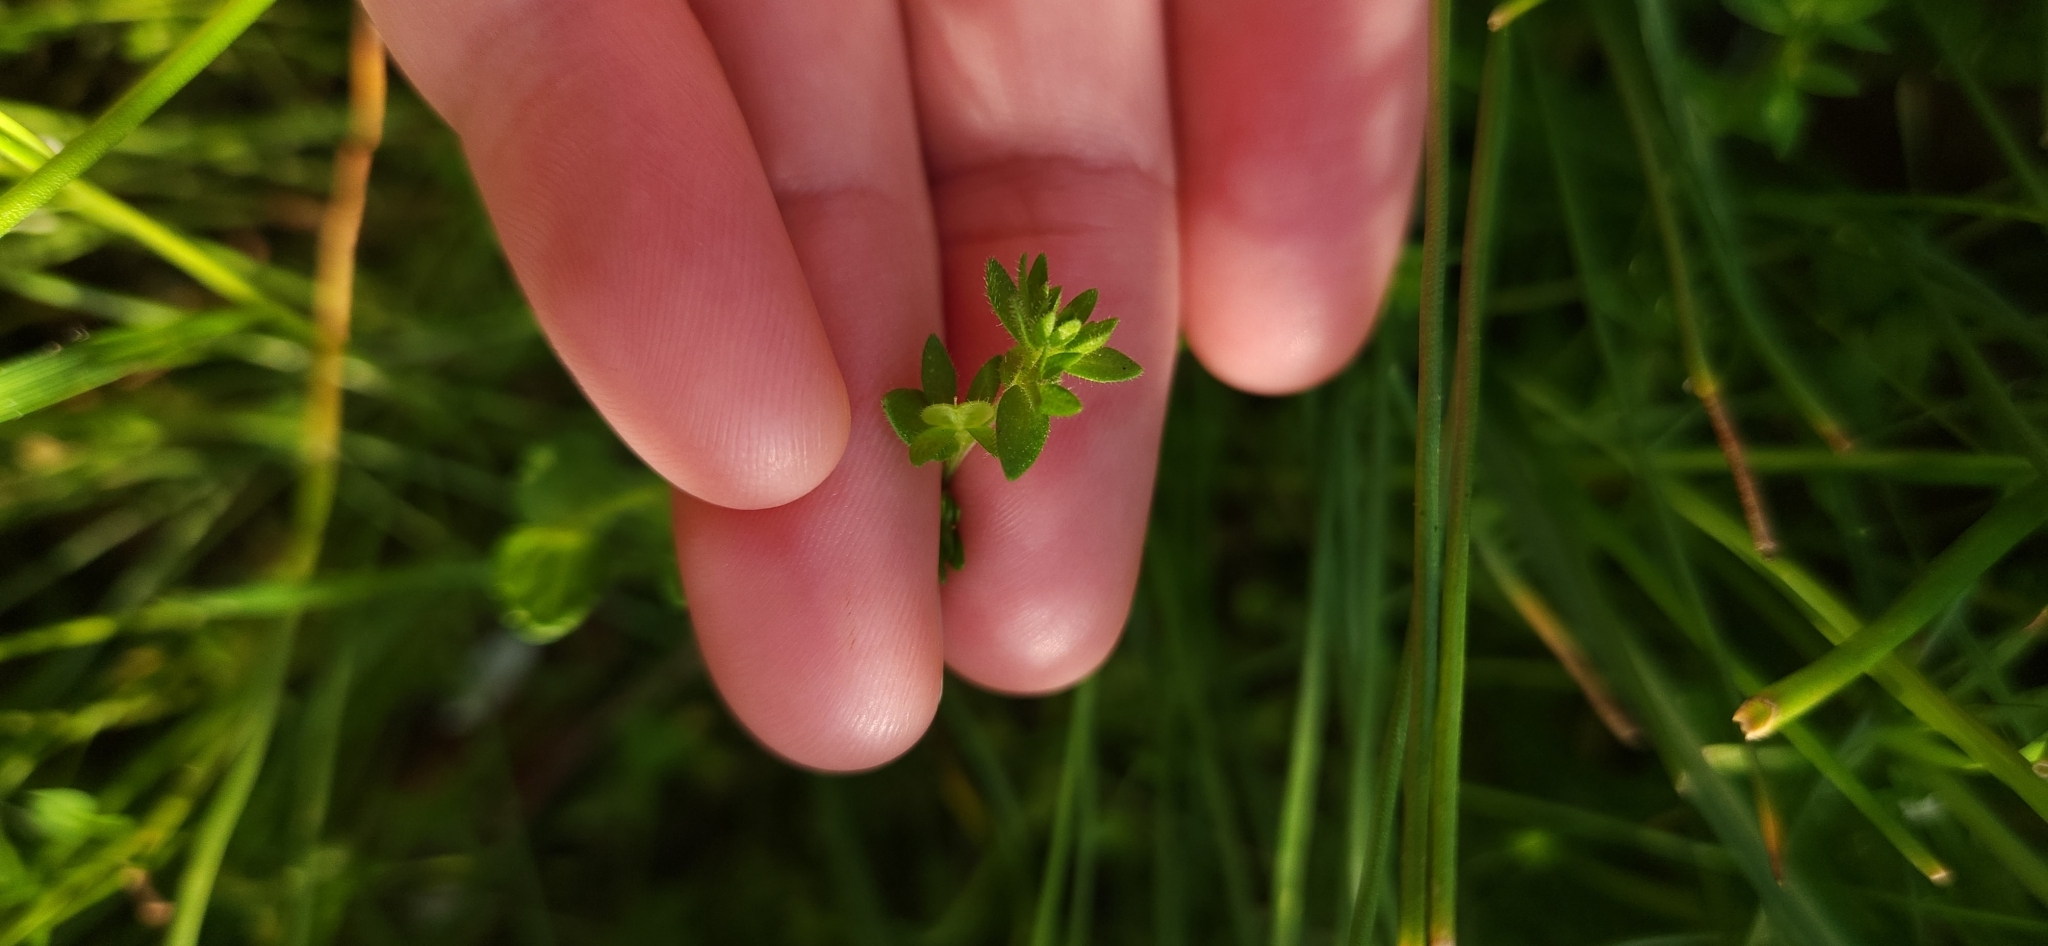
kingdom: Plantae
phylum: Tracheophyta
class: Magnoliopsida
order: Lamiales
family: Plantaginaceae
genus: Veronica
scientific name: Veronica arvensis
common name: Corn speedwell
